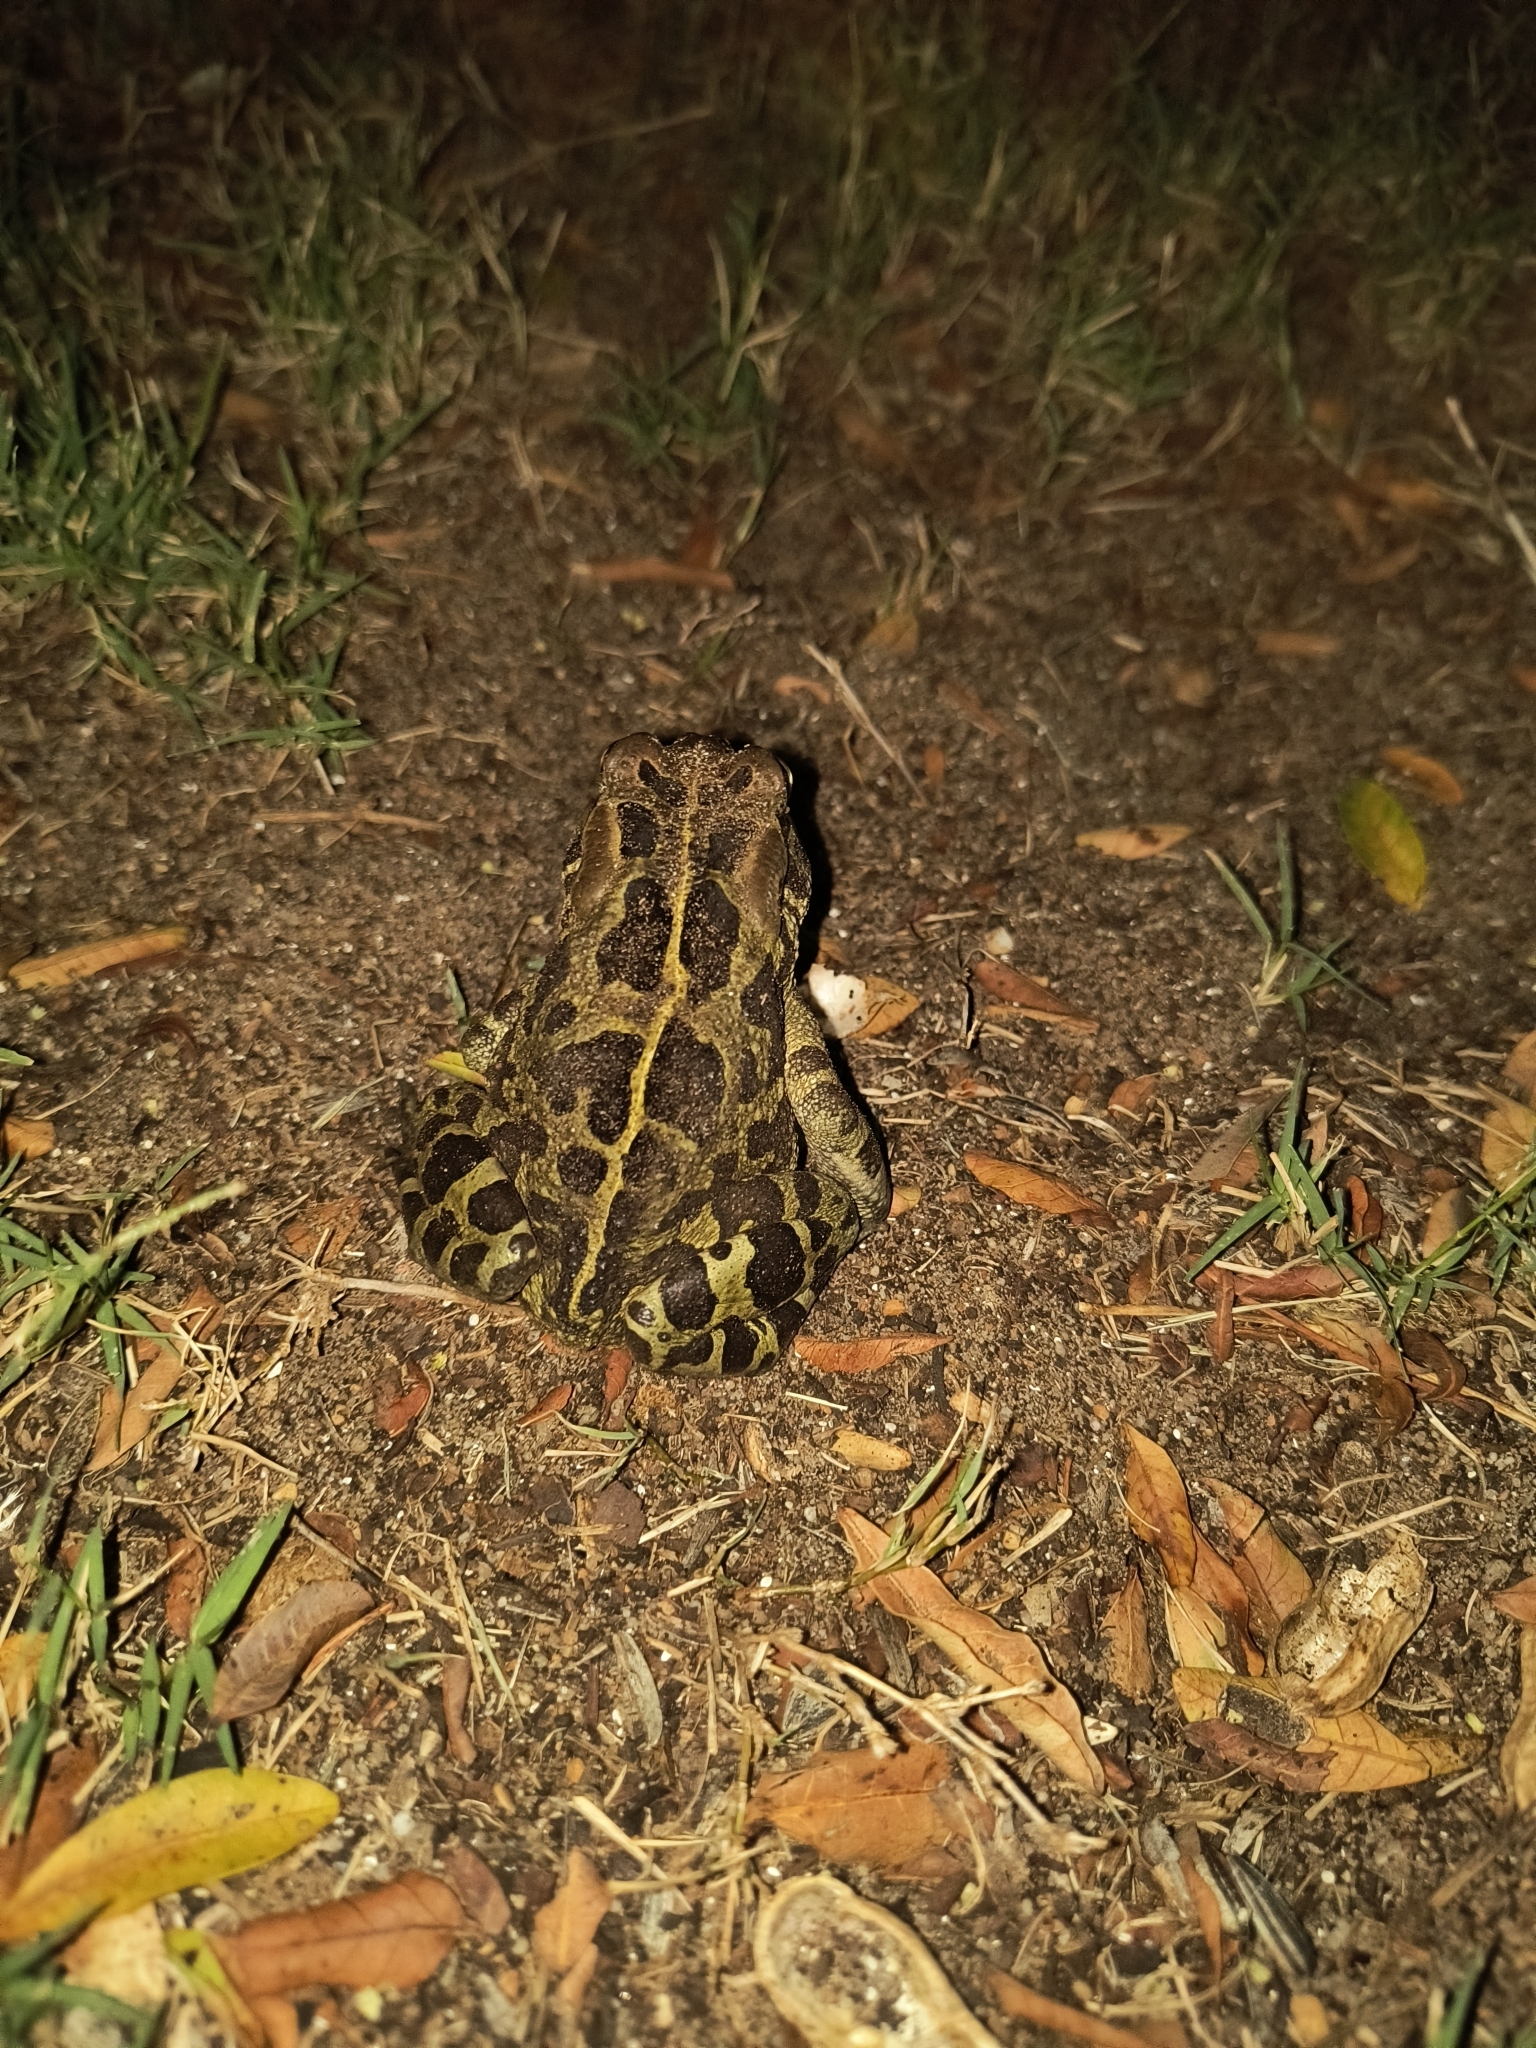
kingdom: Animalia
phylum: Chordata
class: Amphibia
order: Anura
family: Bufonidae
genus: Sclerophrys
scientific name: Sclerophrys pantherina
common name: Panther toad
